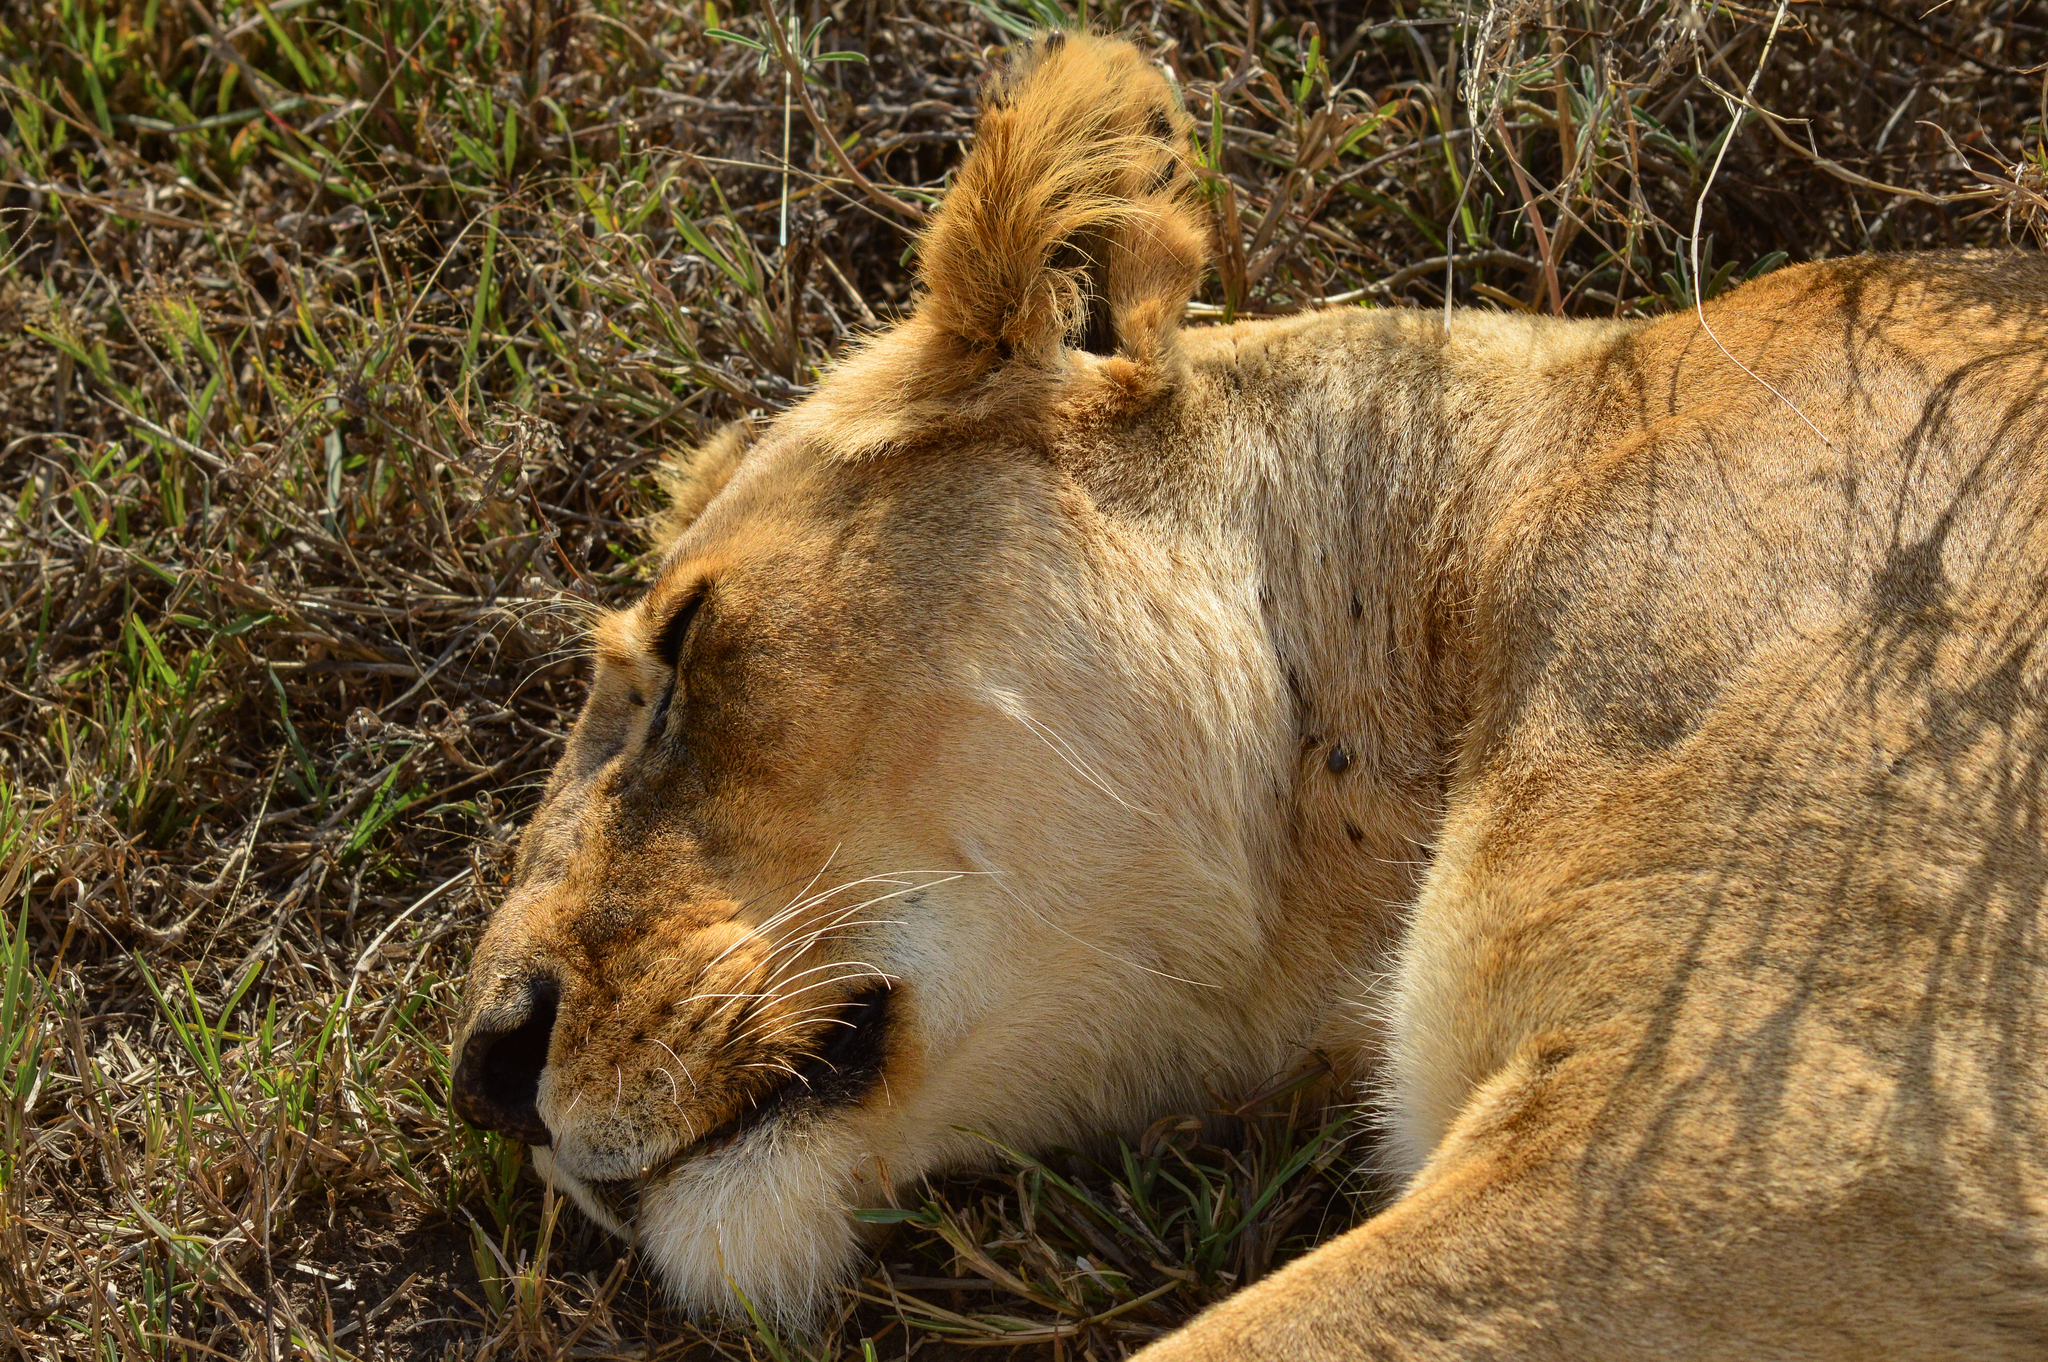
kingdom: Animalia
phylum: Chordata
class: Mammalia
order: Carnivora
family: Felidae
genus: Panthera
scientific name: Panthera leo
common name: Lion
